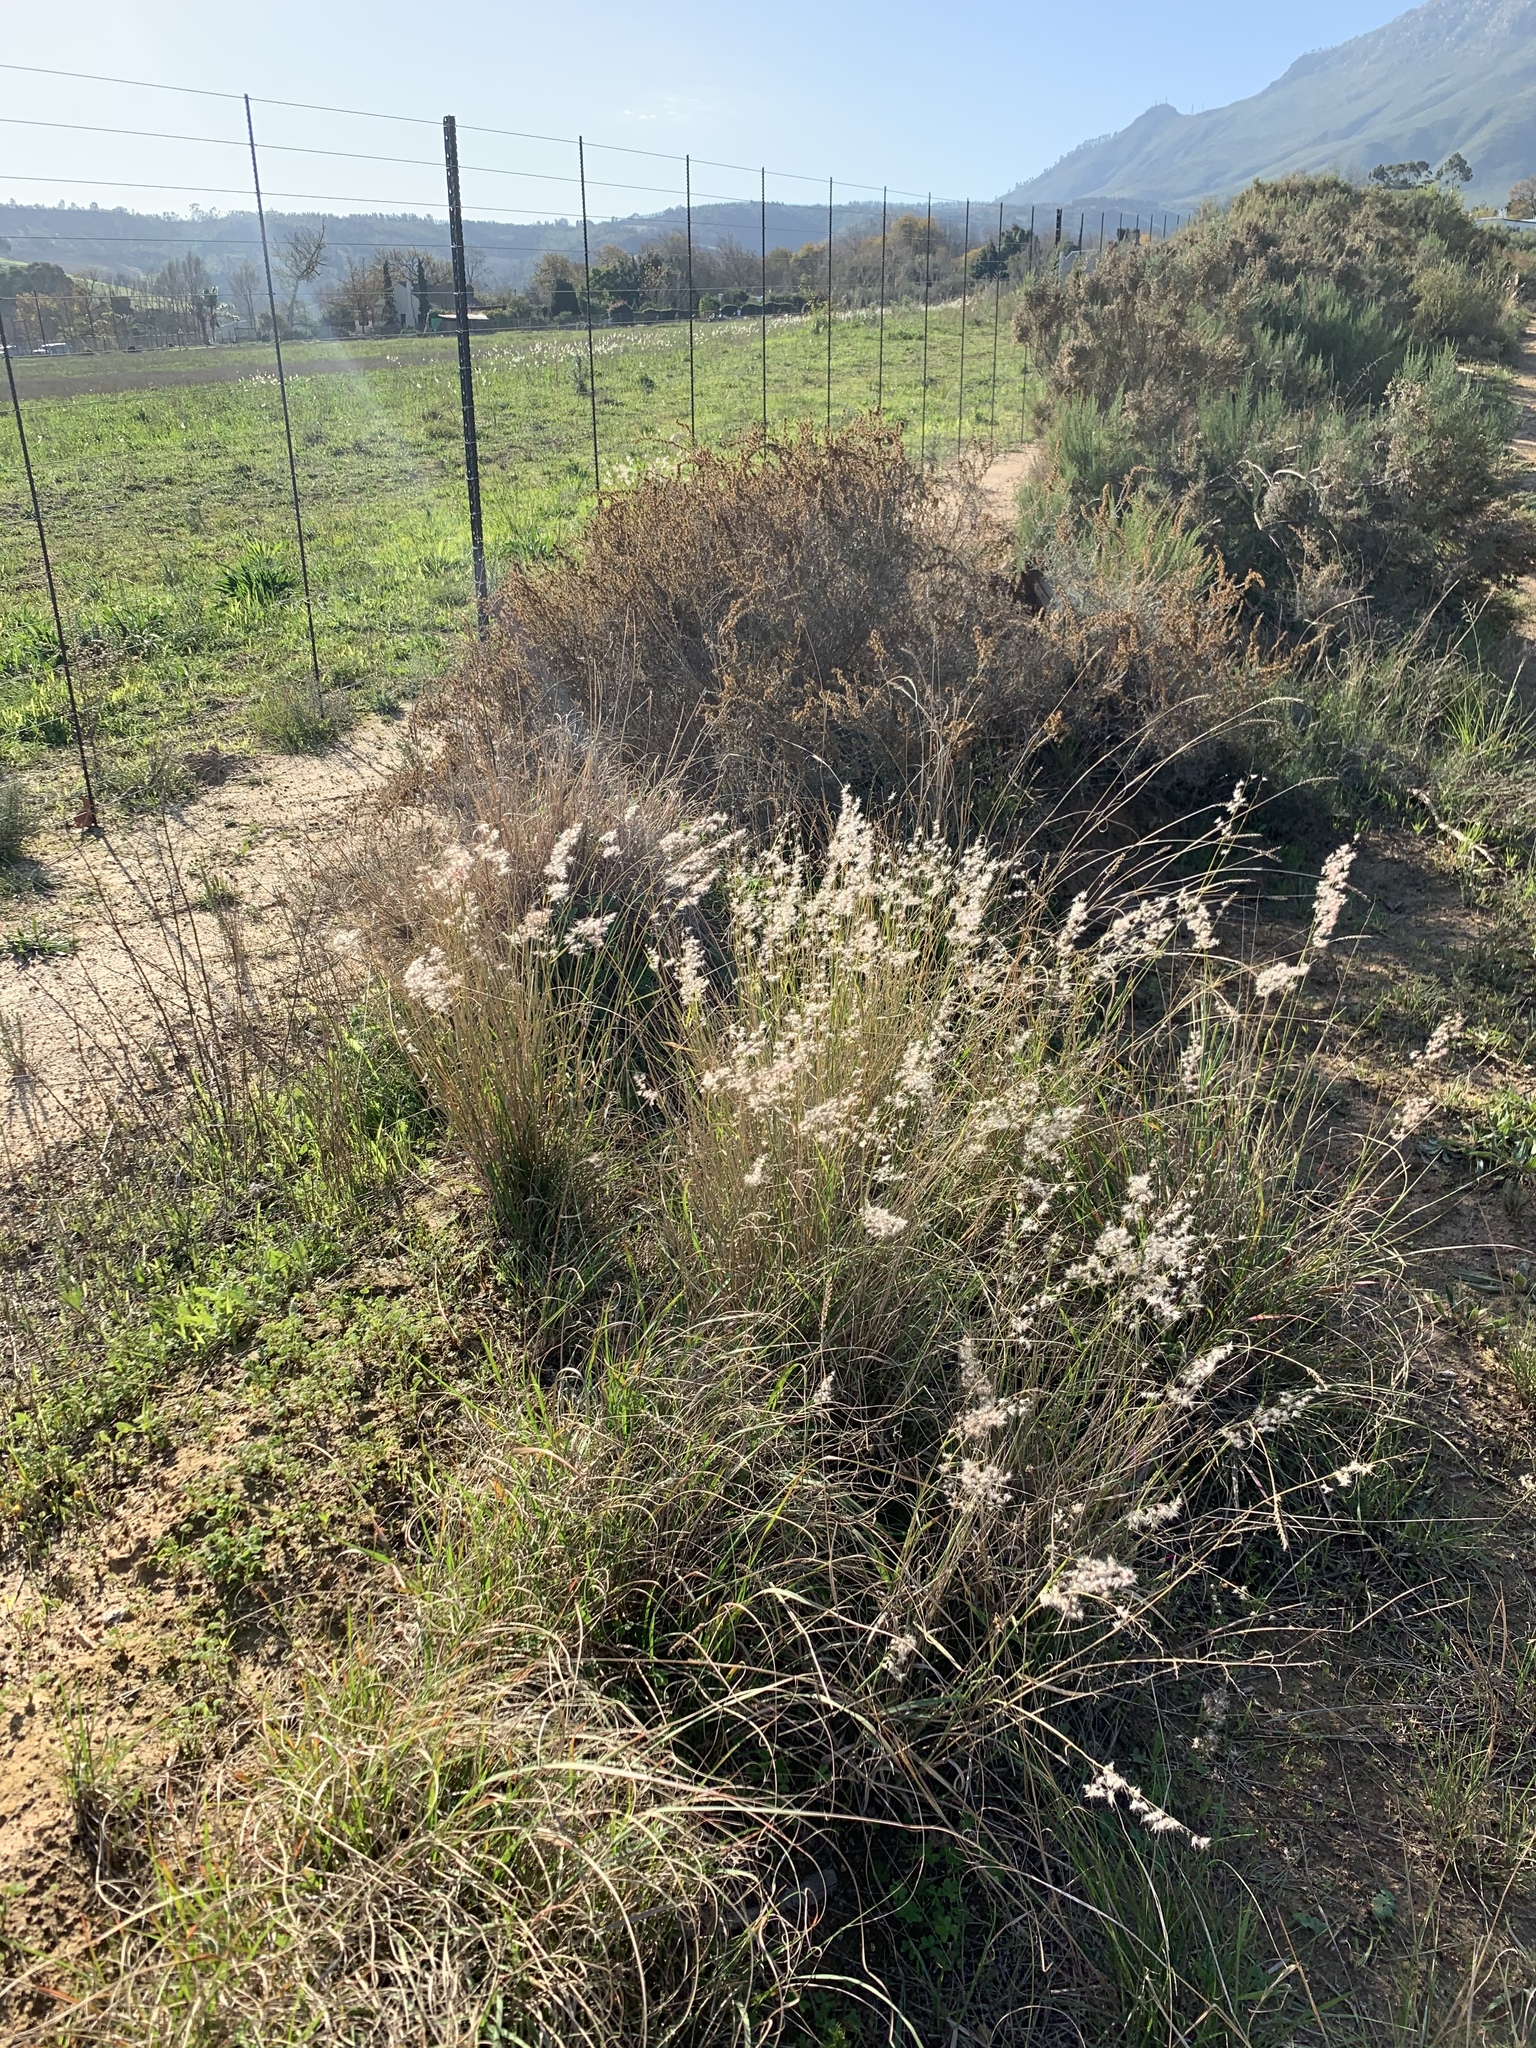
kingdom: Plantae
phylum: Tracheophyta
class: Liliopsida
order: Poales
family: Poaceae
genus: Melinis
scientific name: Melinis repens
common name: Rose natal grass
